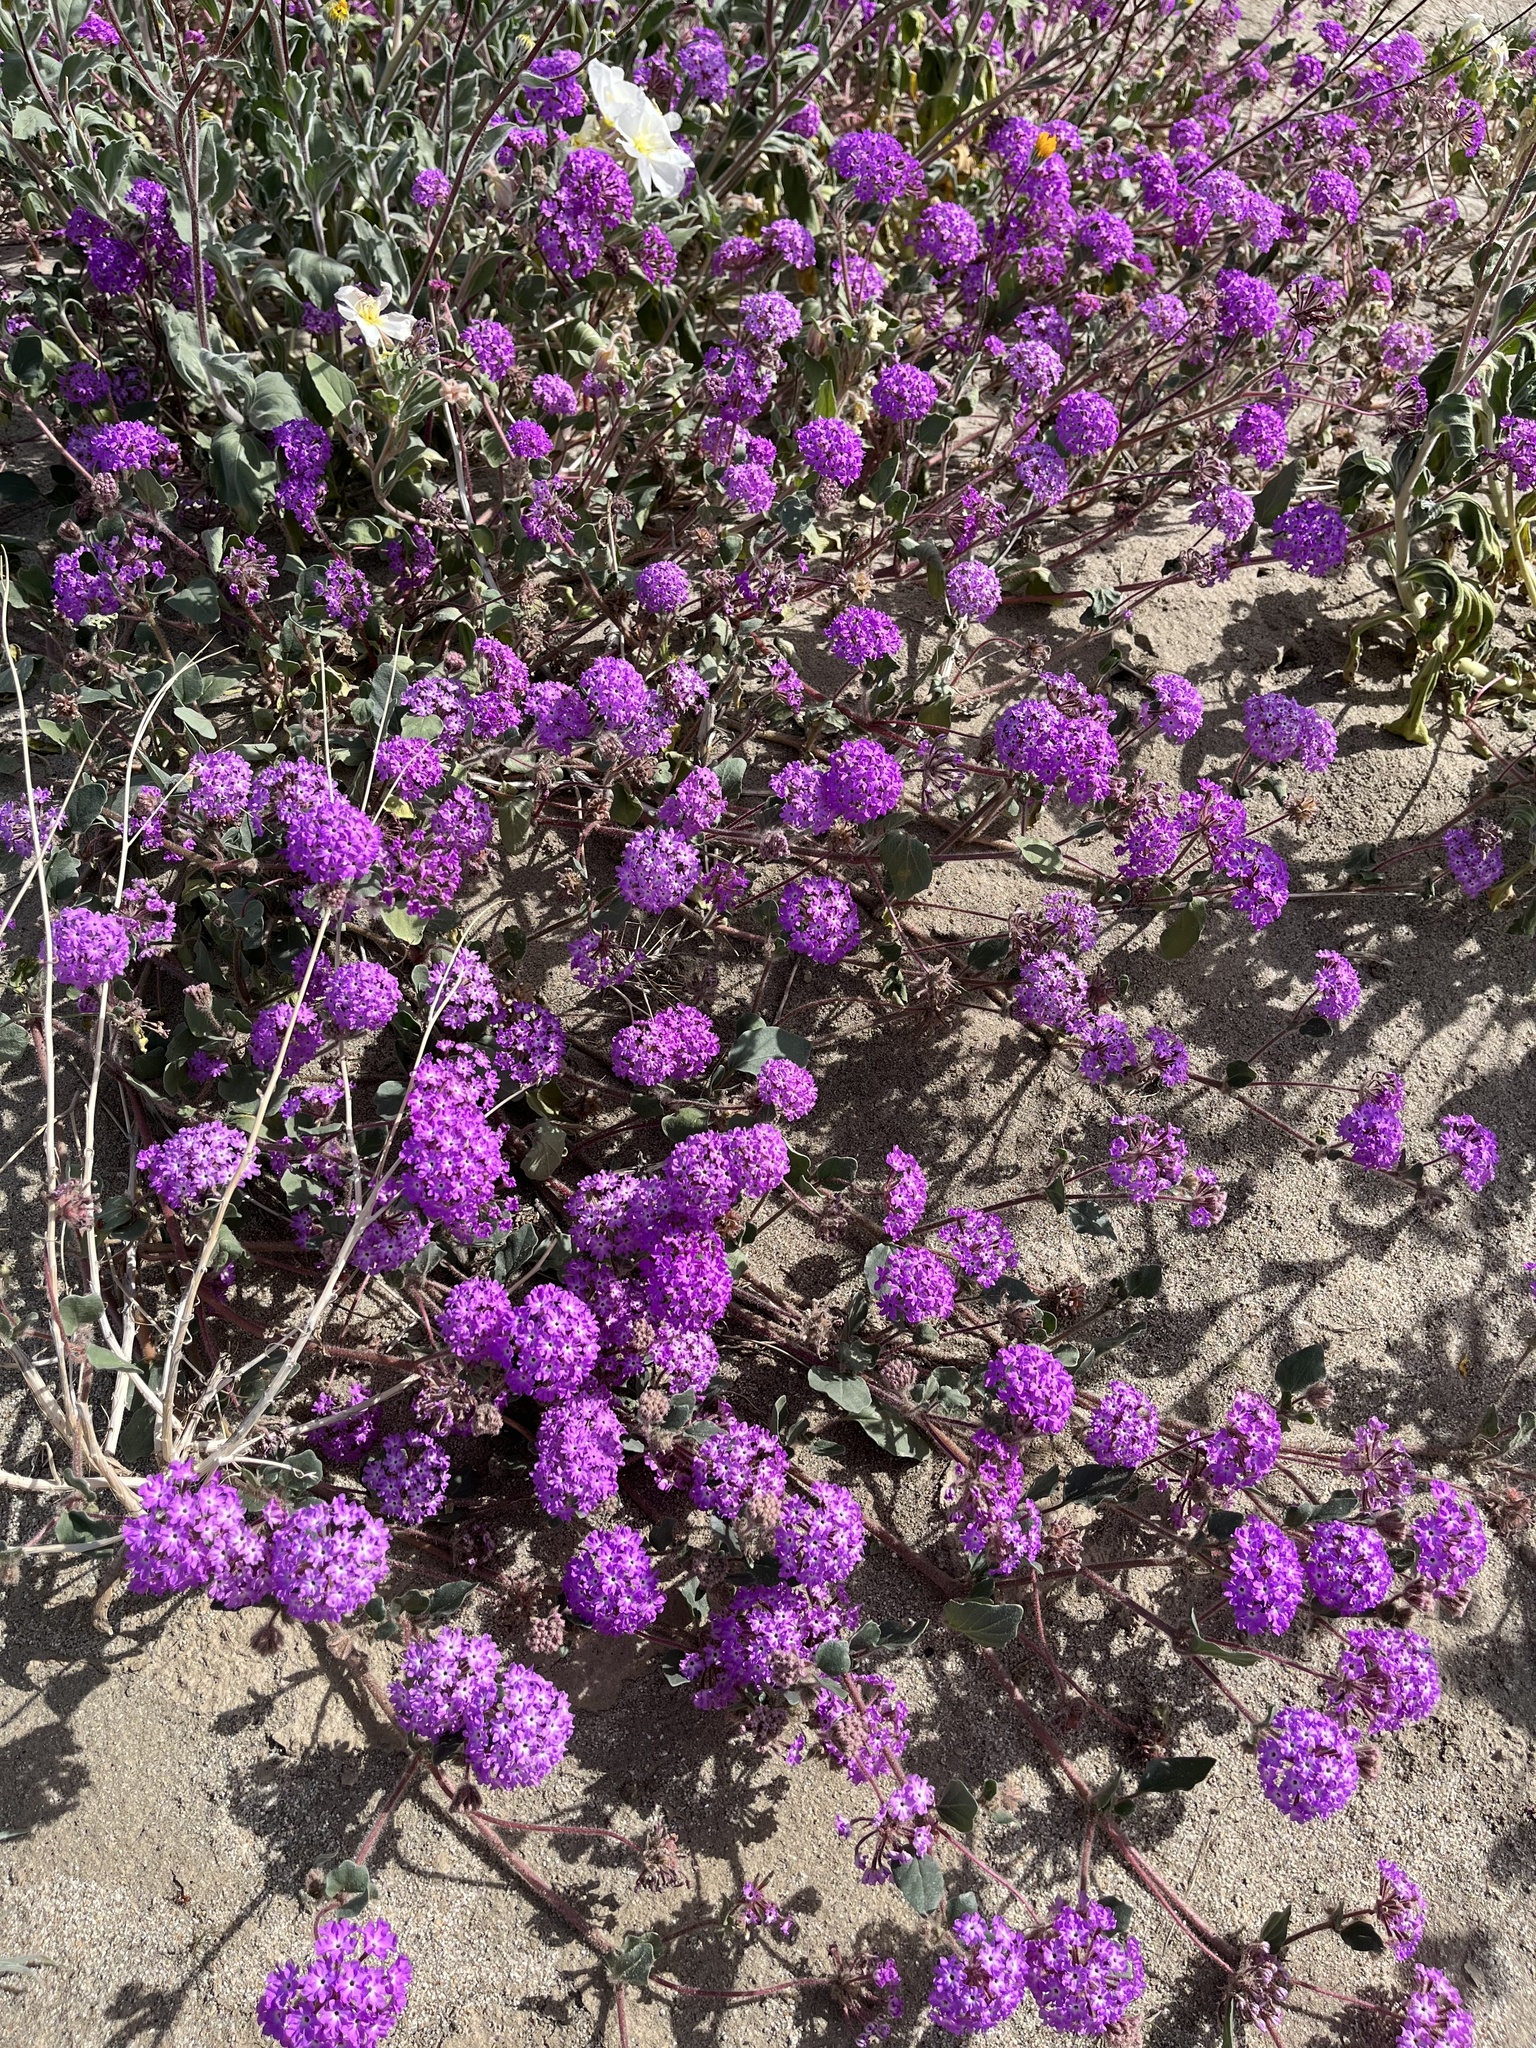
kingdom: Plantae
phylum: Tracheophyta
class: Magnoliopsida
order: Caryophyllales
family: Nyctaginaceae
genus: Abronia
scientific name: Abronia villosa
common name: Desert sand-verbena
